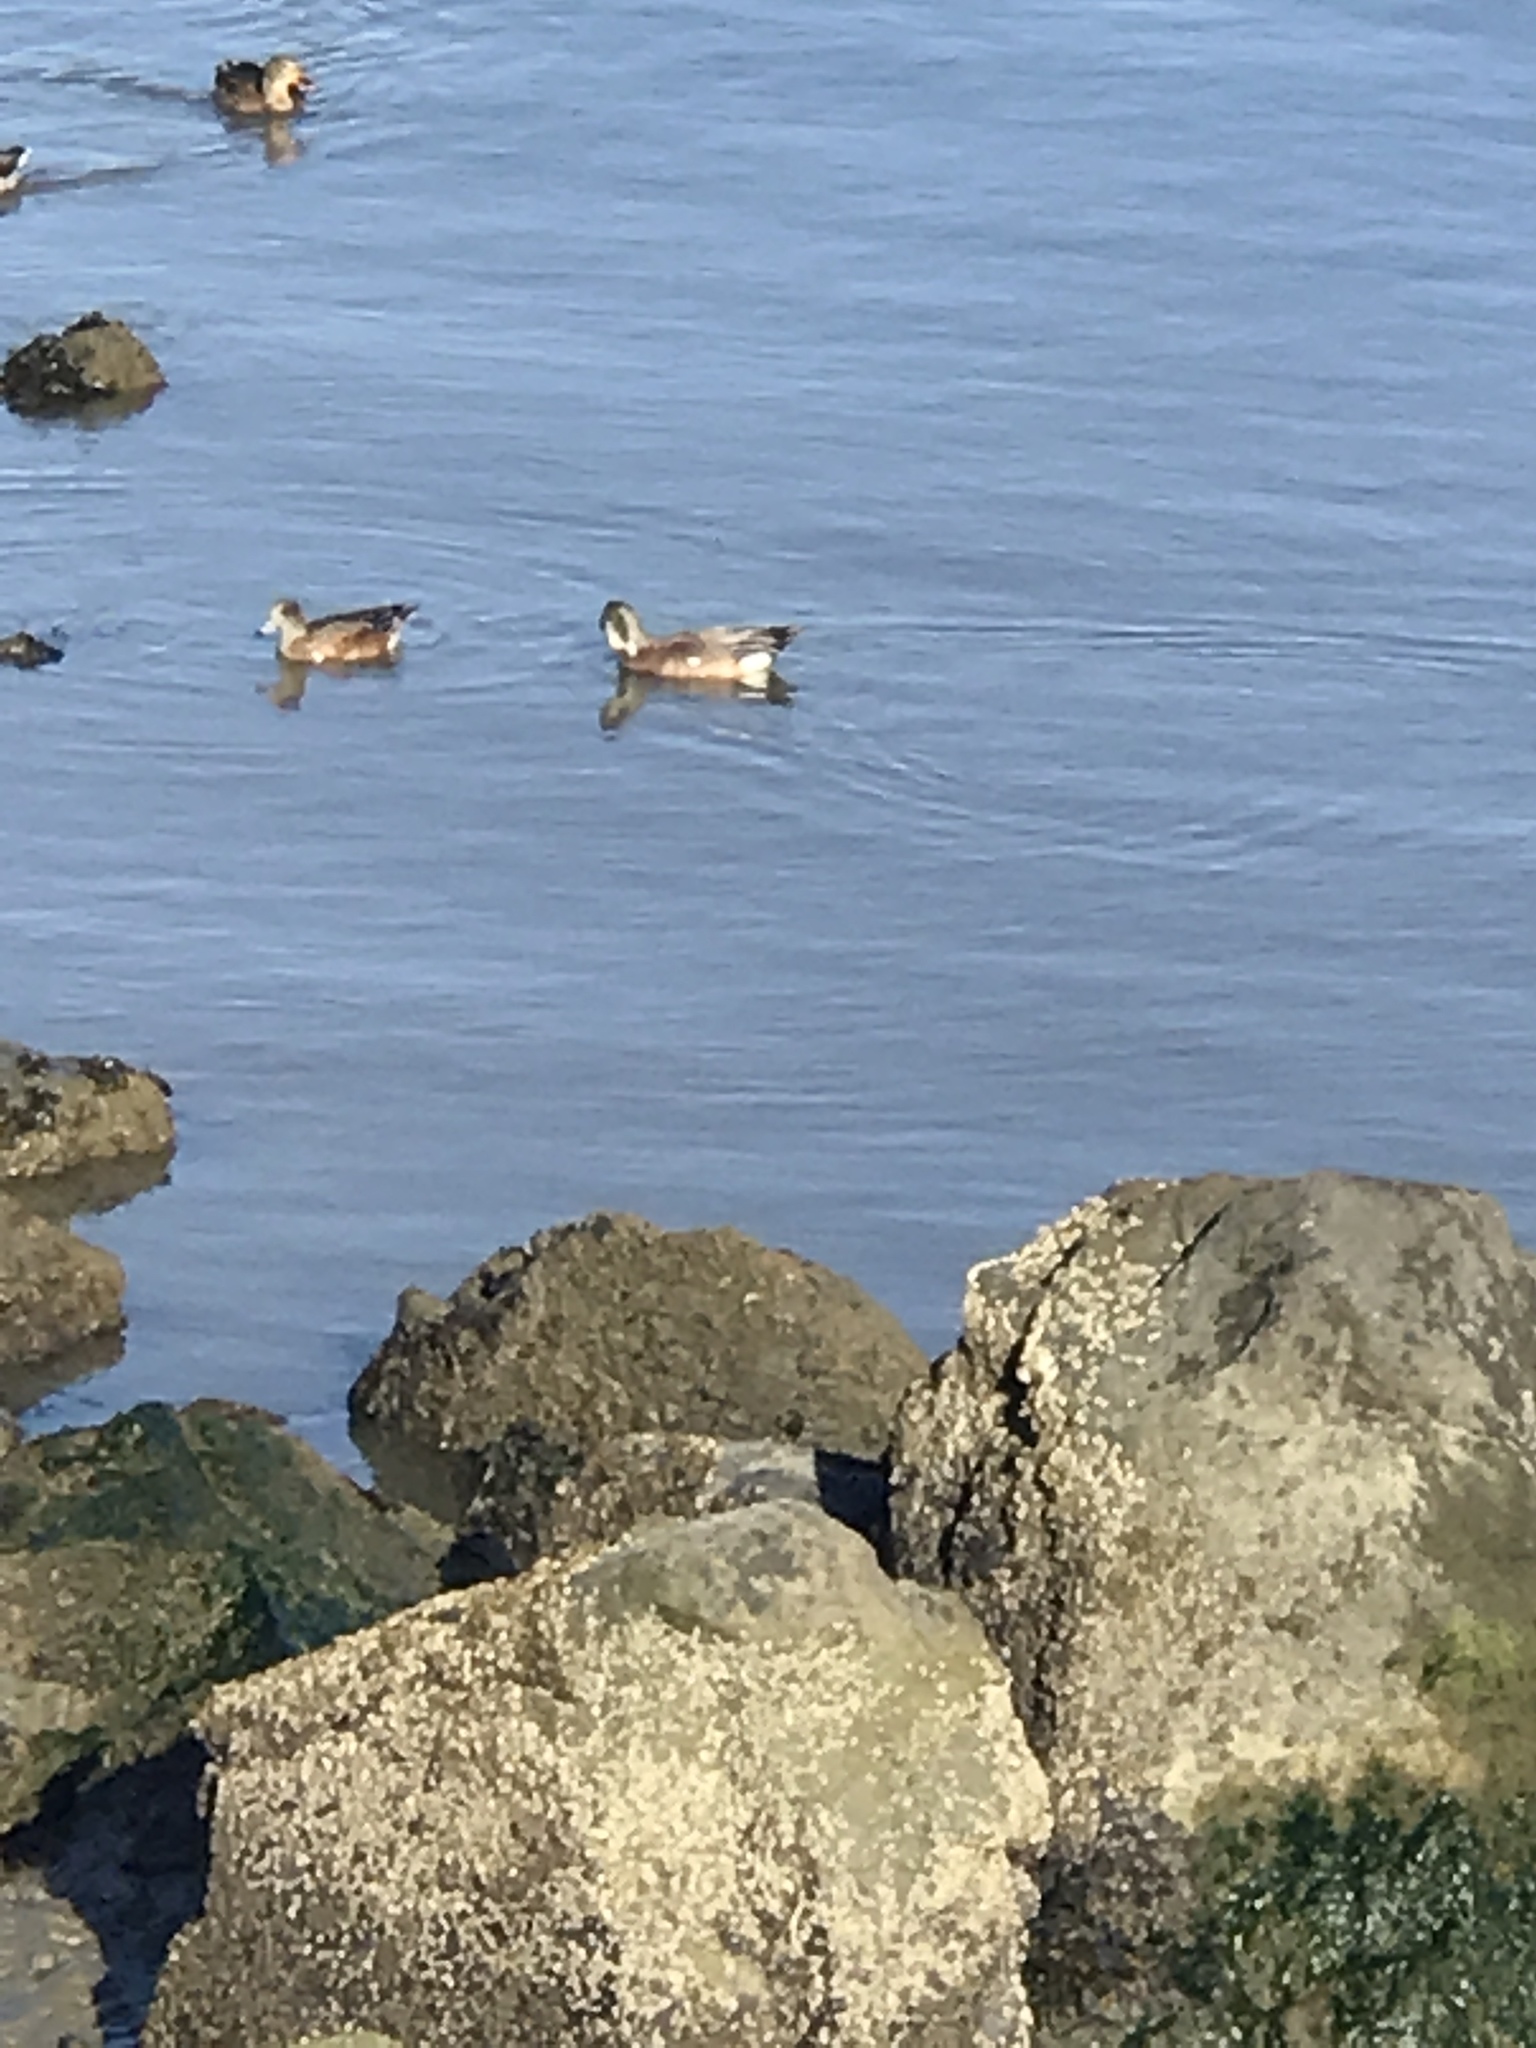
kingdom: Animalia
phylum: Chordata
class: Aves
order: Anseriformes
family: Anatidae
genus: Mareca
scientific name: Mareca americana
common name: American wigeon
